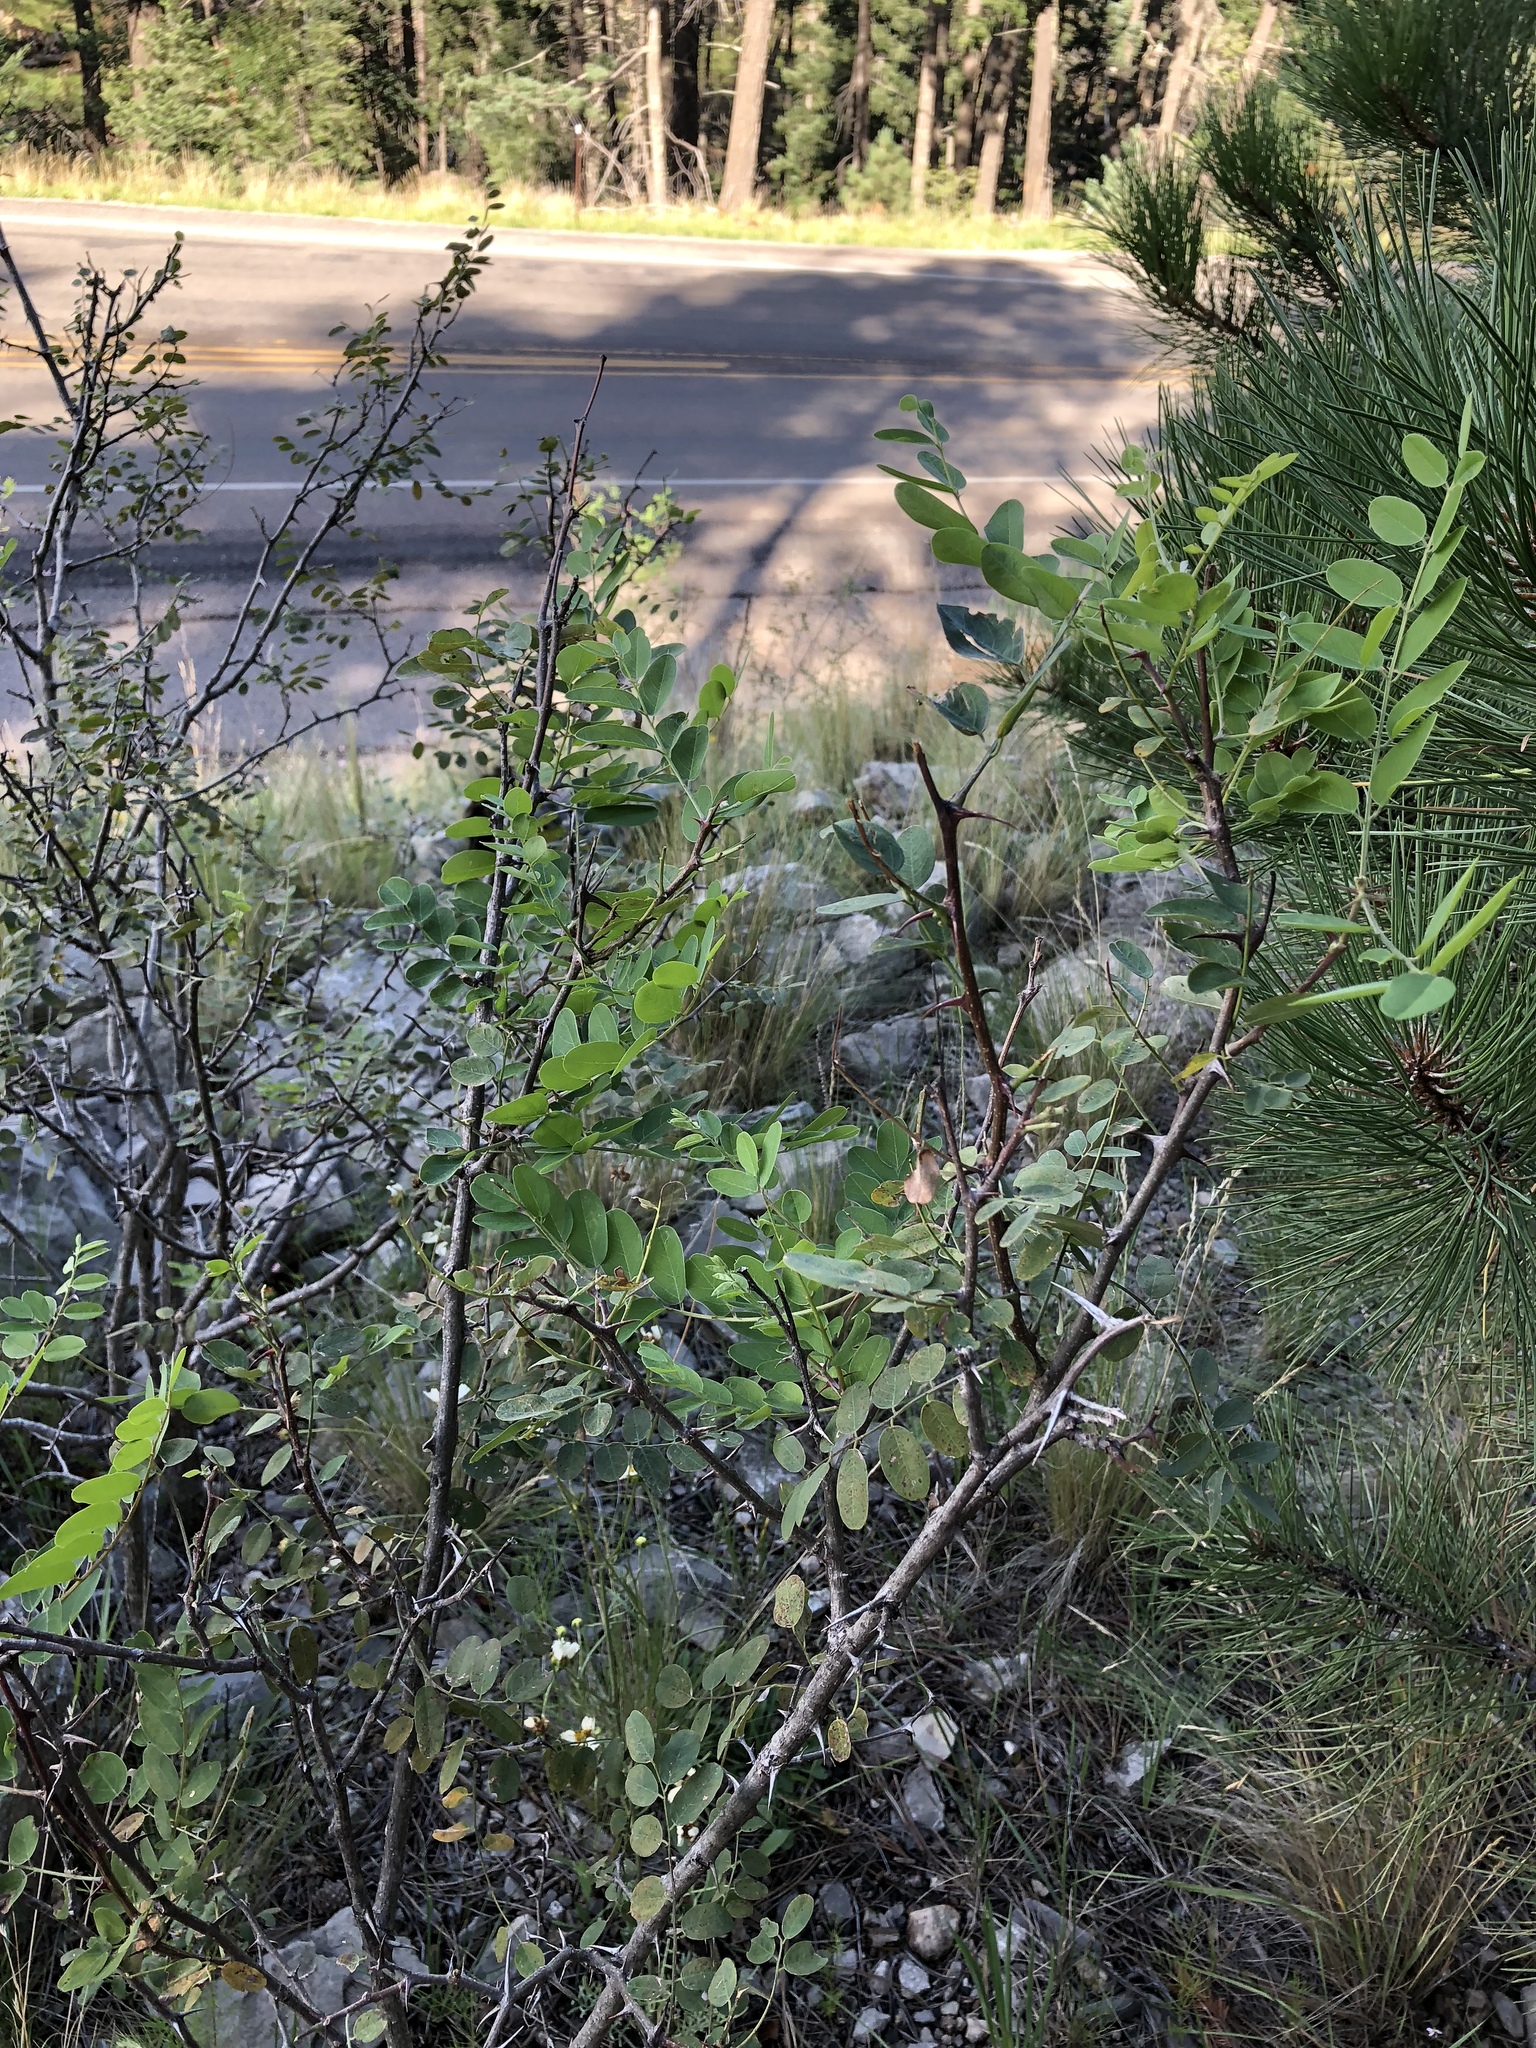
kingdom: Plantae
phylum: Tracheophyta
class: Magnoliopsida
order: Fabales
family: Fabaceae
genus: Robinia
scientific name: Robinia neomexicana
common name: New mexico locust
